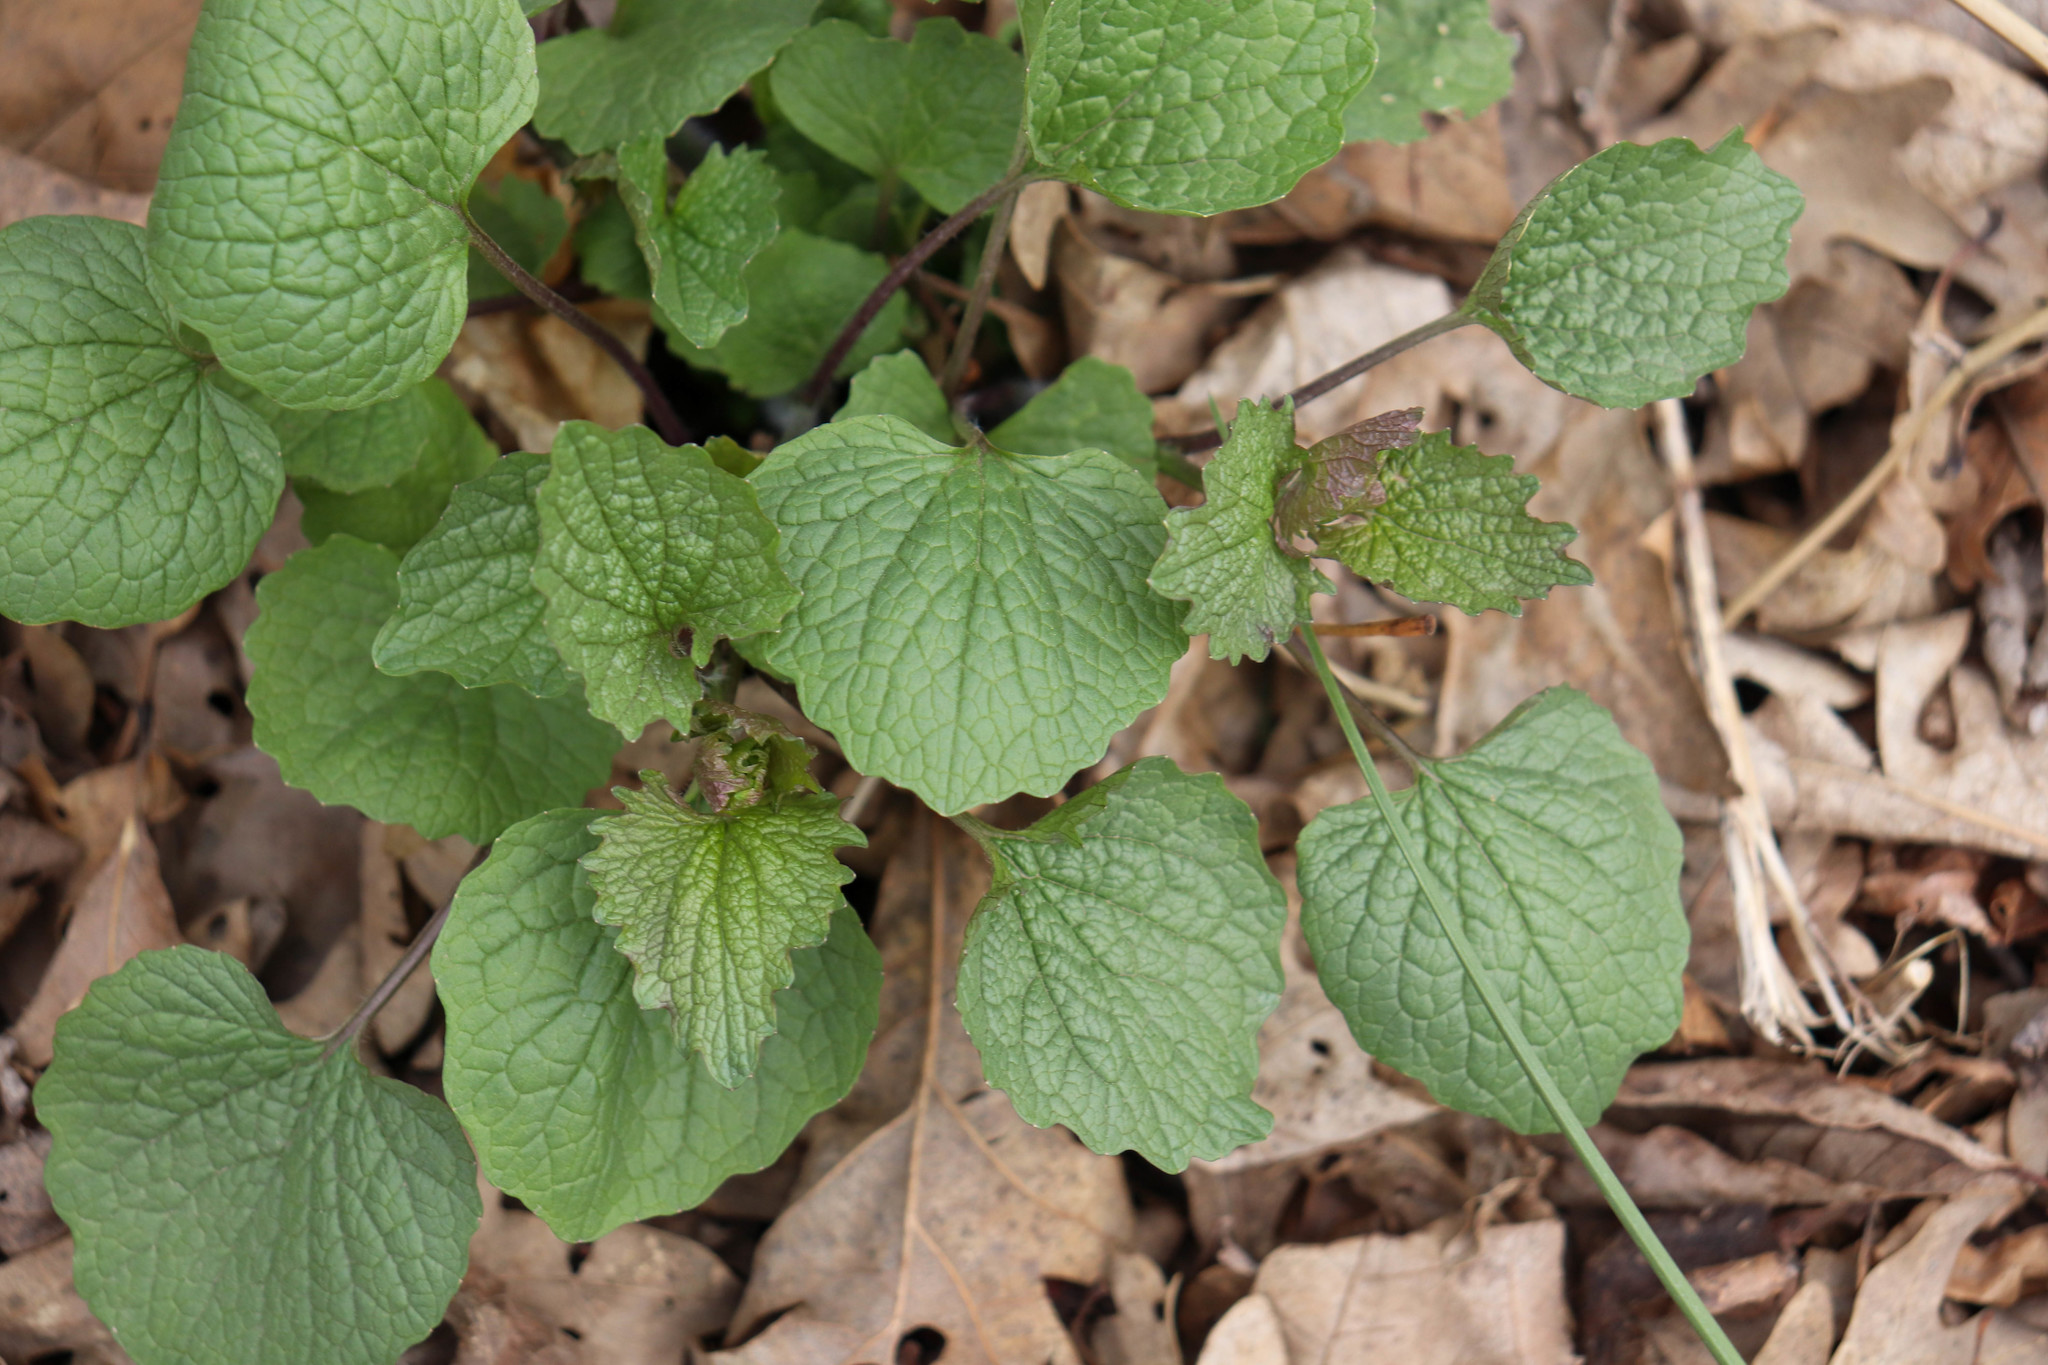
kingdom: Plantae
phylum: Tracheophyta
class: Magnoliopsida
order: Brassicales
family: Brassicaceae
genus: Alliaria
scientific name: Alliaria petiolata
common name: Garlic mustard
